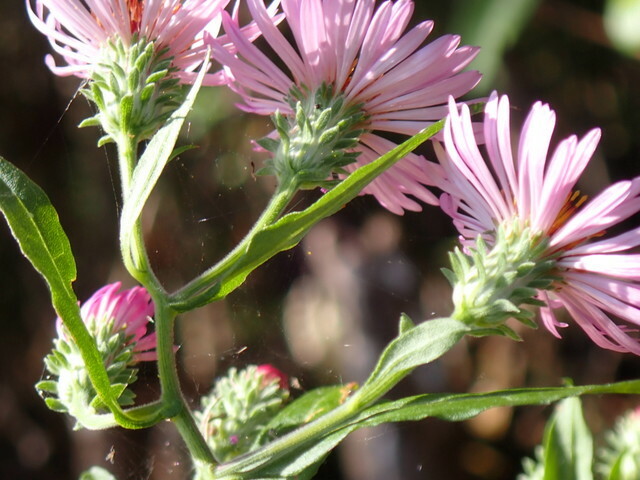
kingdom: Plantae
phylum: Tracheophyta
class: Magnoliopsida
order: Asterales
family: Asteraceae
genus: Ampelaster
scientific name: Ampelaster carolinianus
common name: Climbing aster
